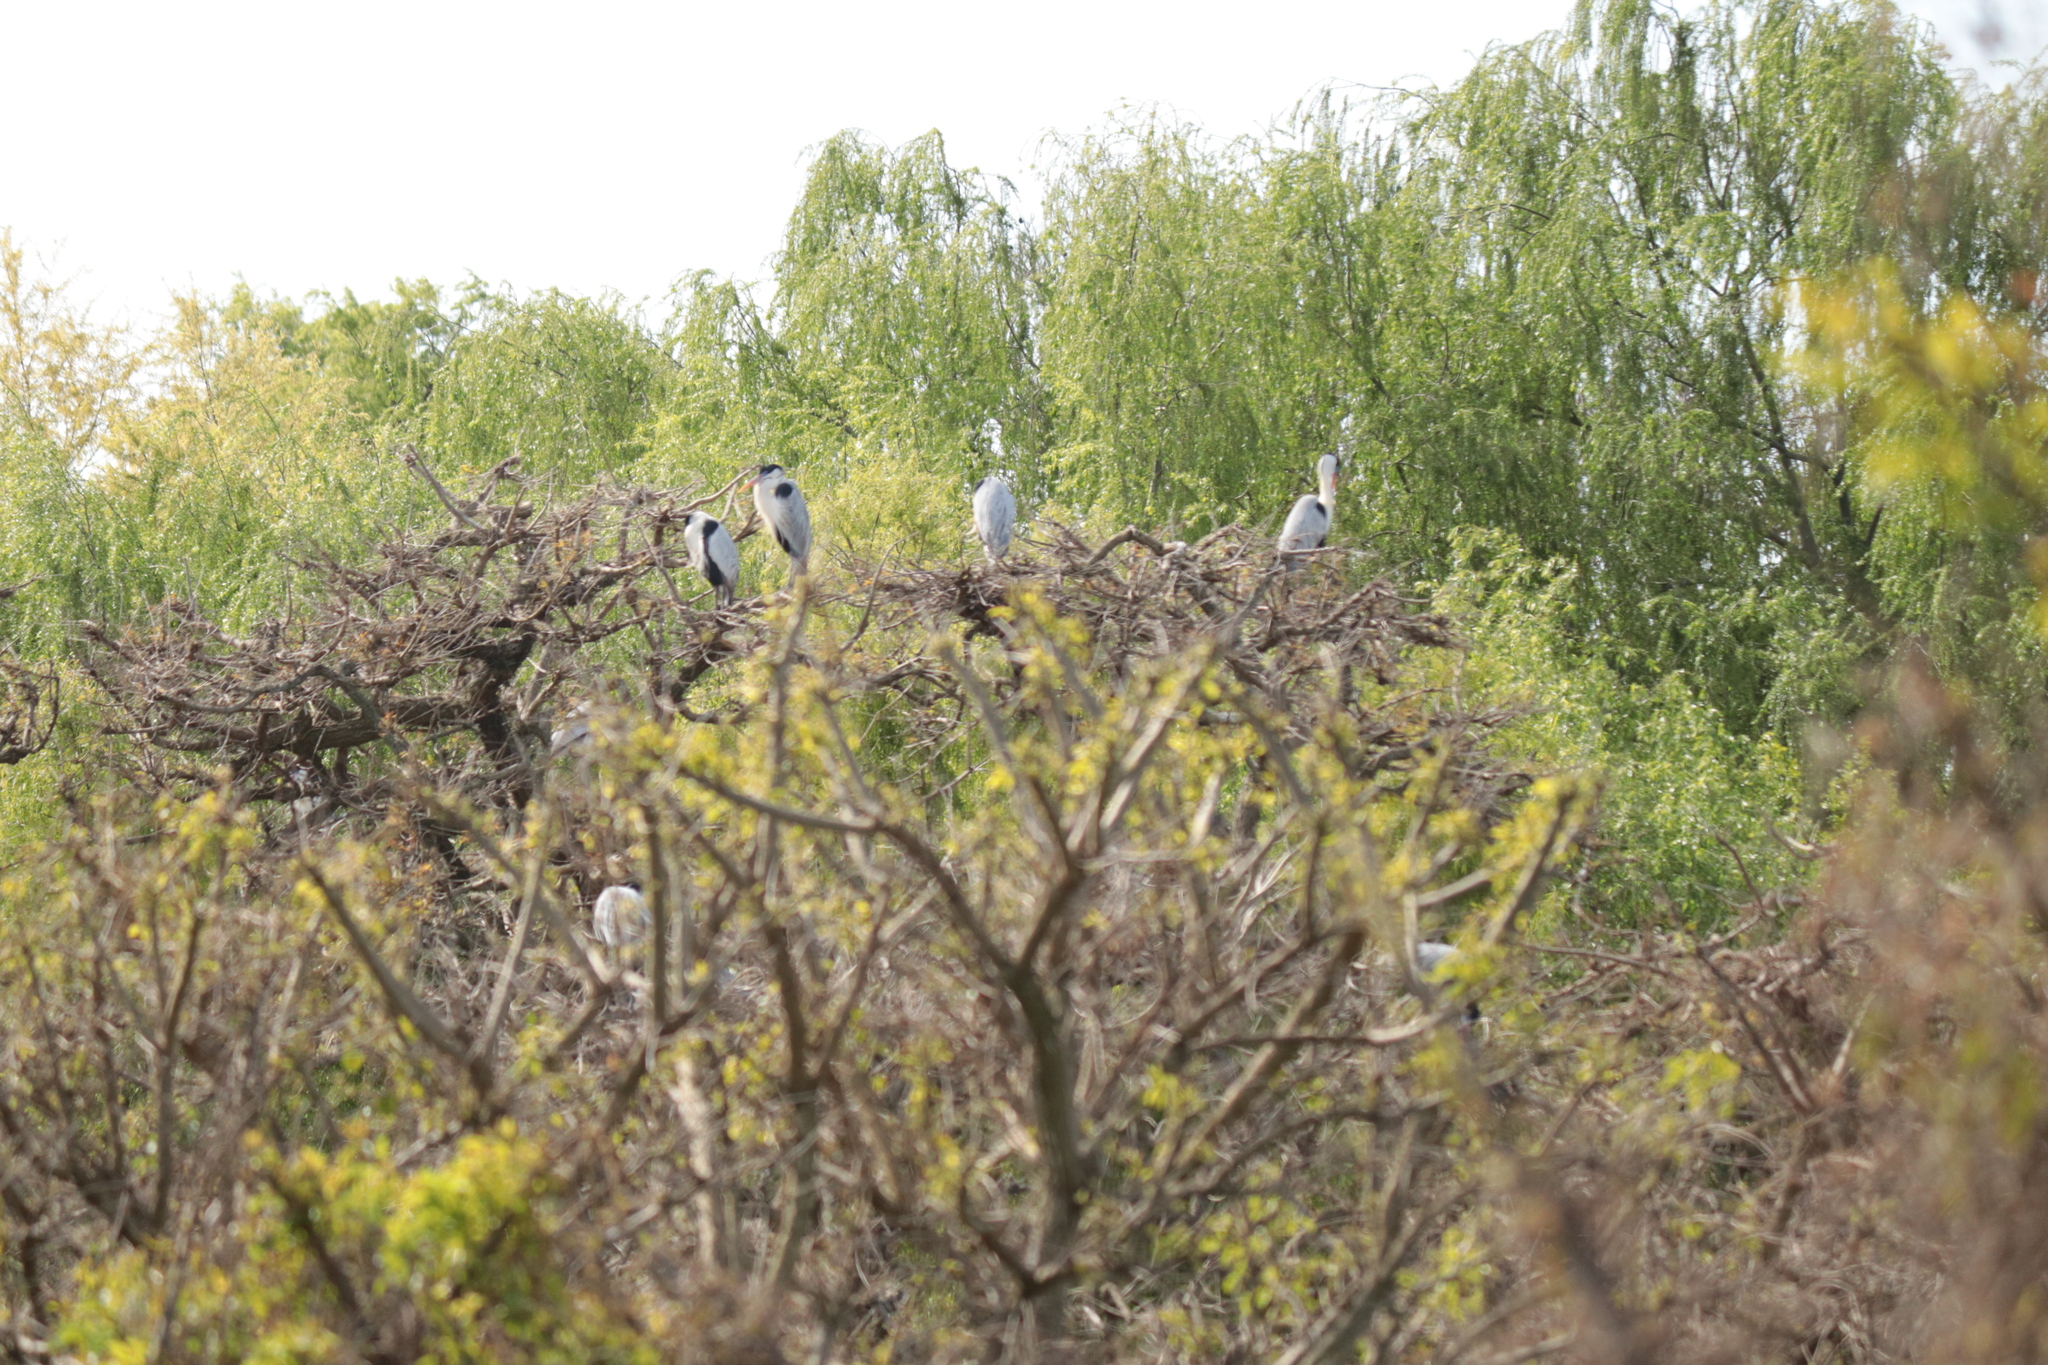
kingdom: Animalia
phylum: Chordata
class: Aves
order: Pelecaniformes
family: Ardeidae
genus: Ardea
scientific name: Ardea cocoi
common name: Cocoi heron
